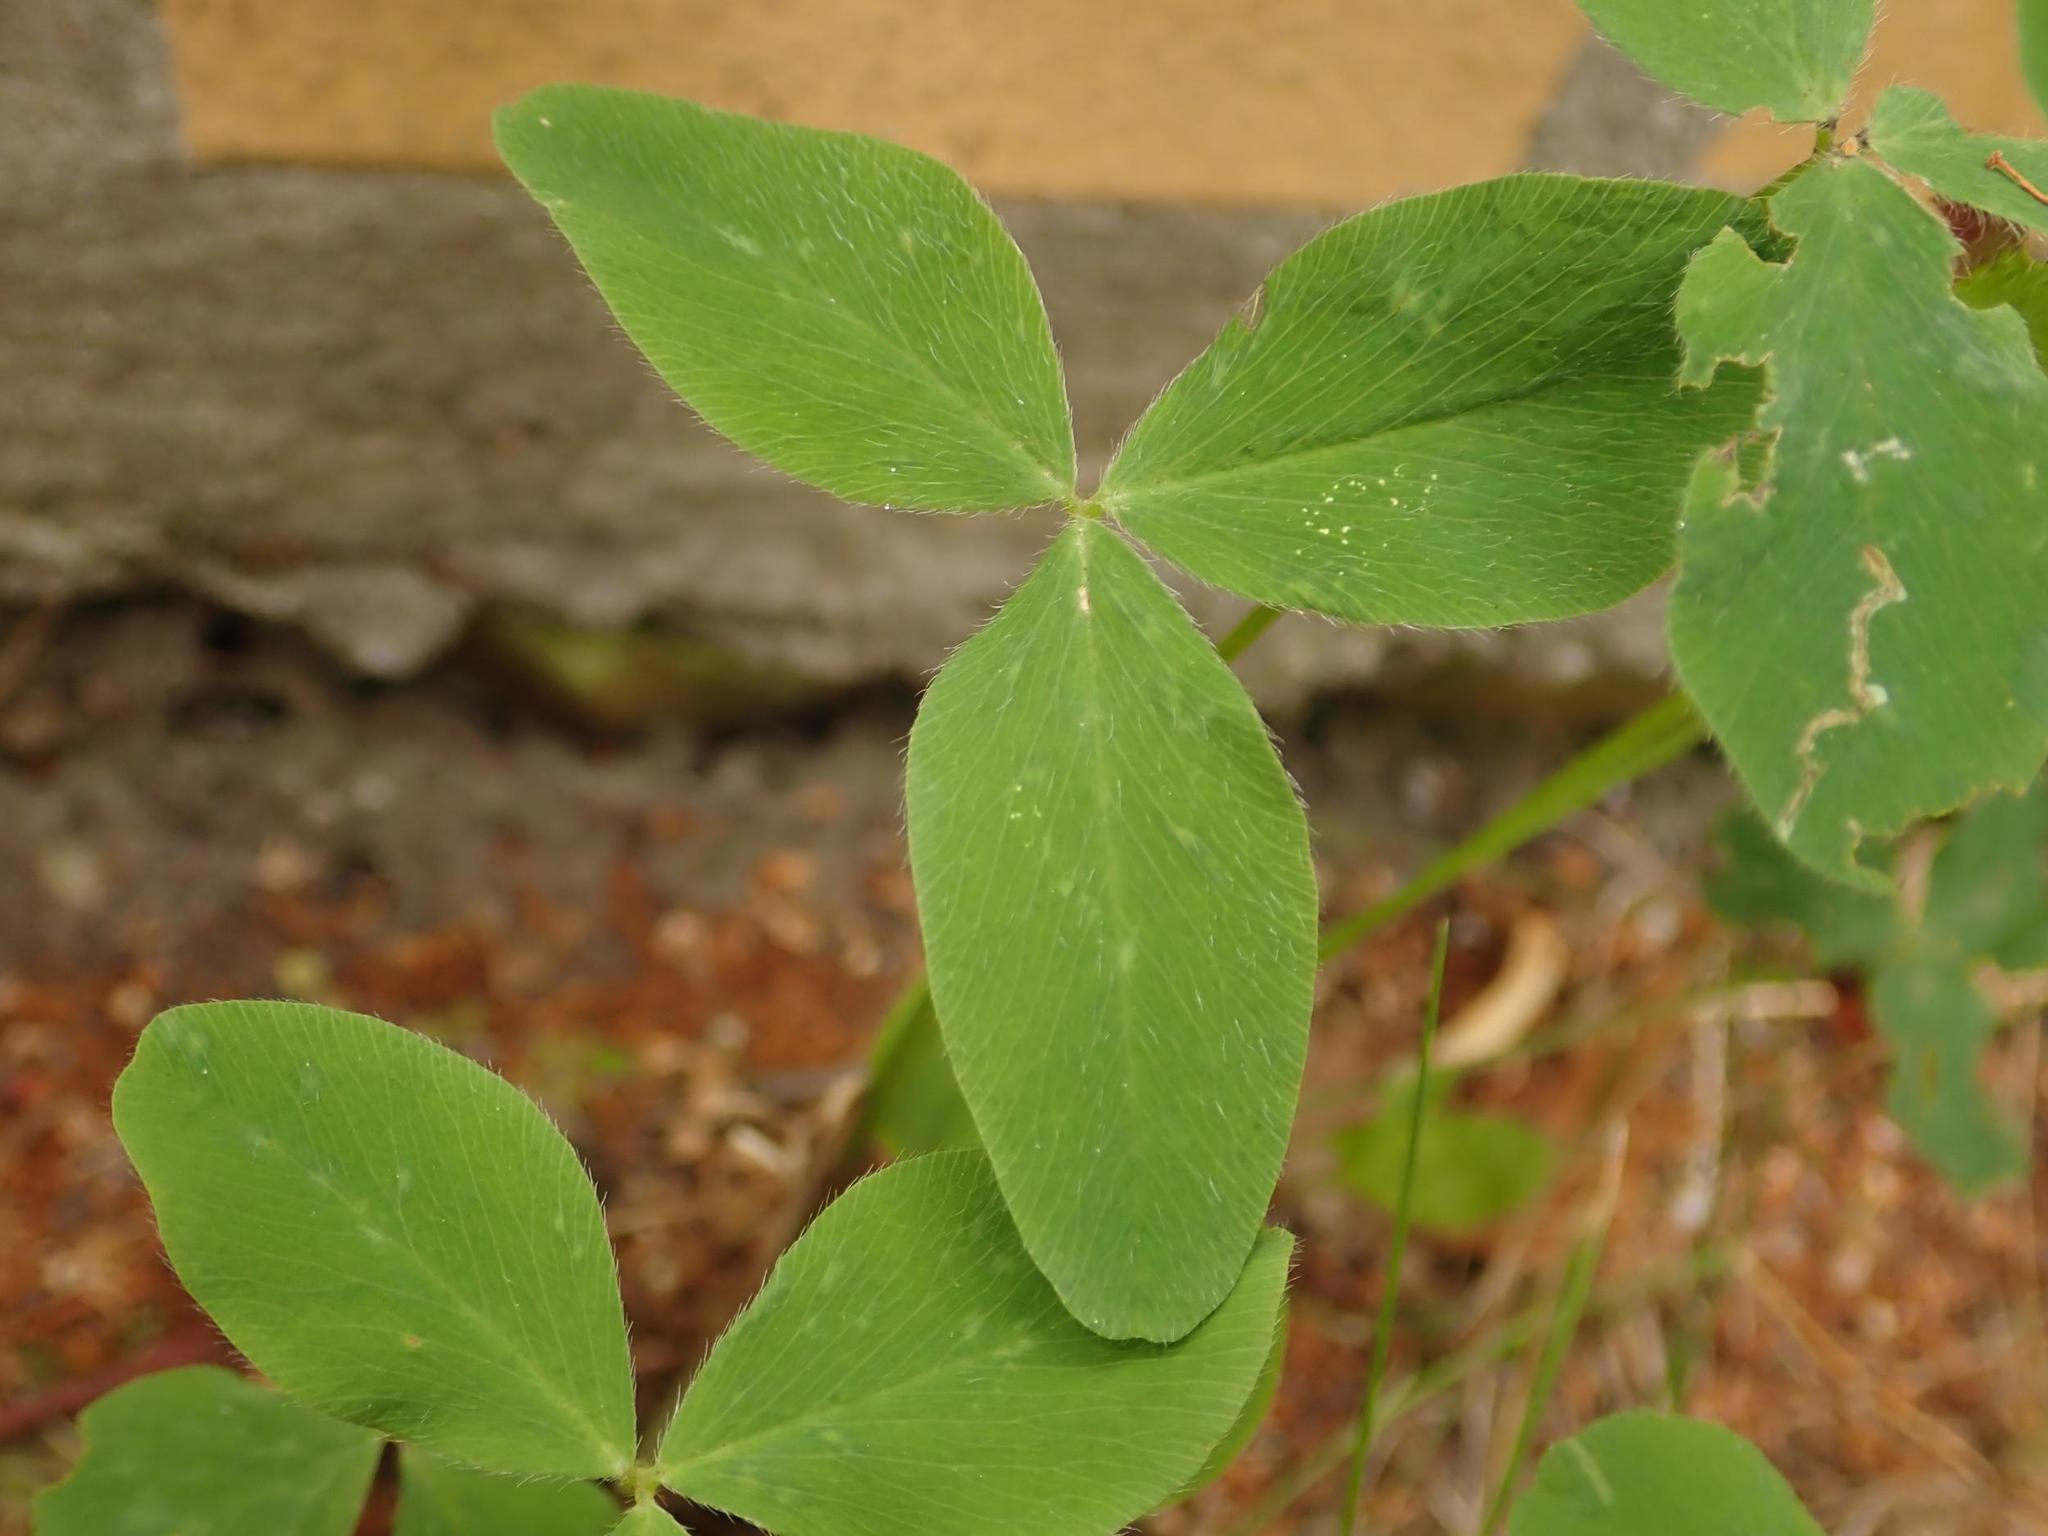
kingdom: Plantae
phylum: Tracheophyta
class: Magnoliopsida
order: Fabales
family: Fabaceae
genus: Trifolium
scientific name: Trifolium pratense
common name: Red clover
